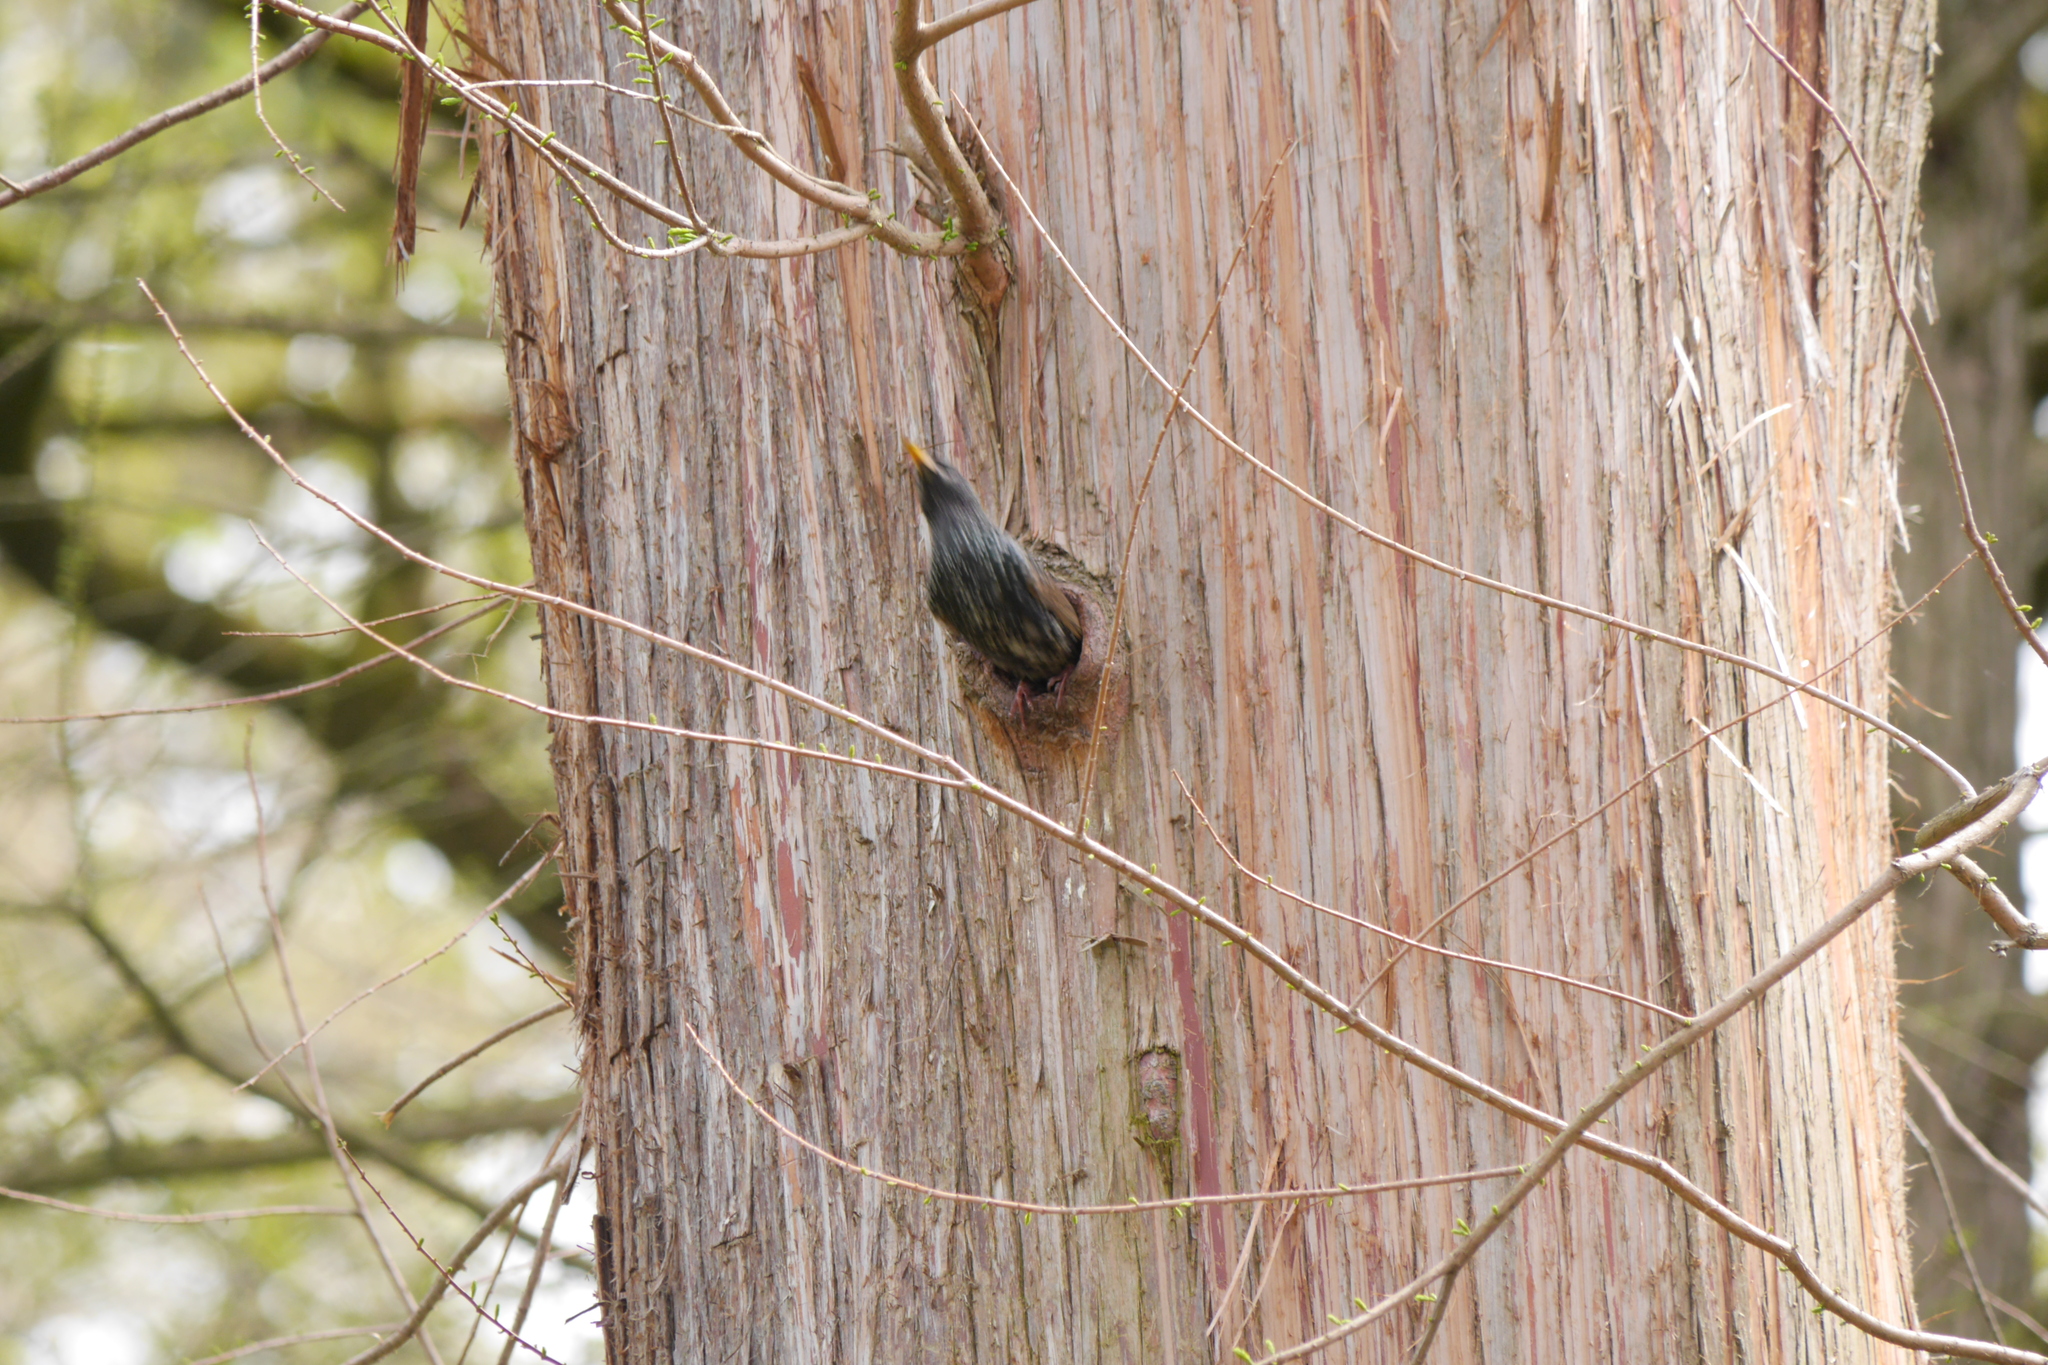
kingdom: Animalia
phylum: Chordata
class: Aves
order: Passeriformes
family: Sturnidae
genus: Sturnus
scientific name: Sturnus vulgaris
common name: Common starling
